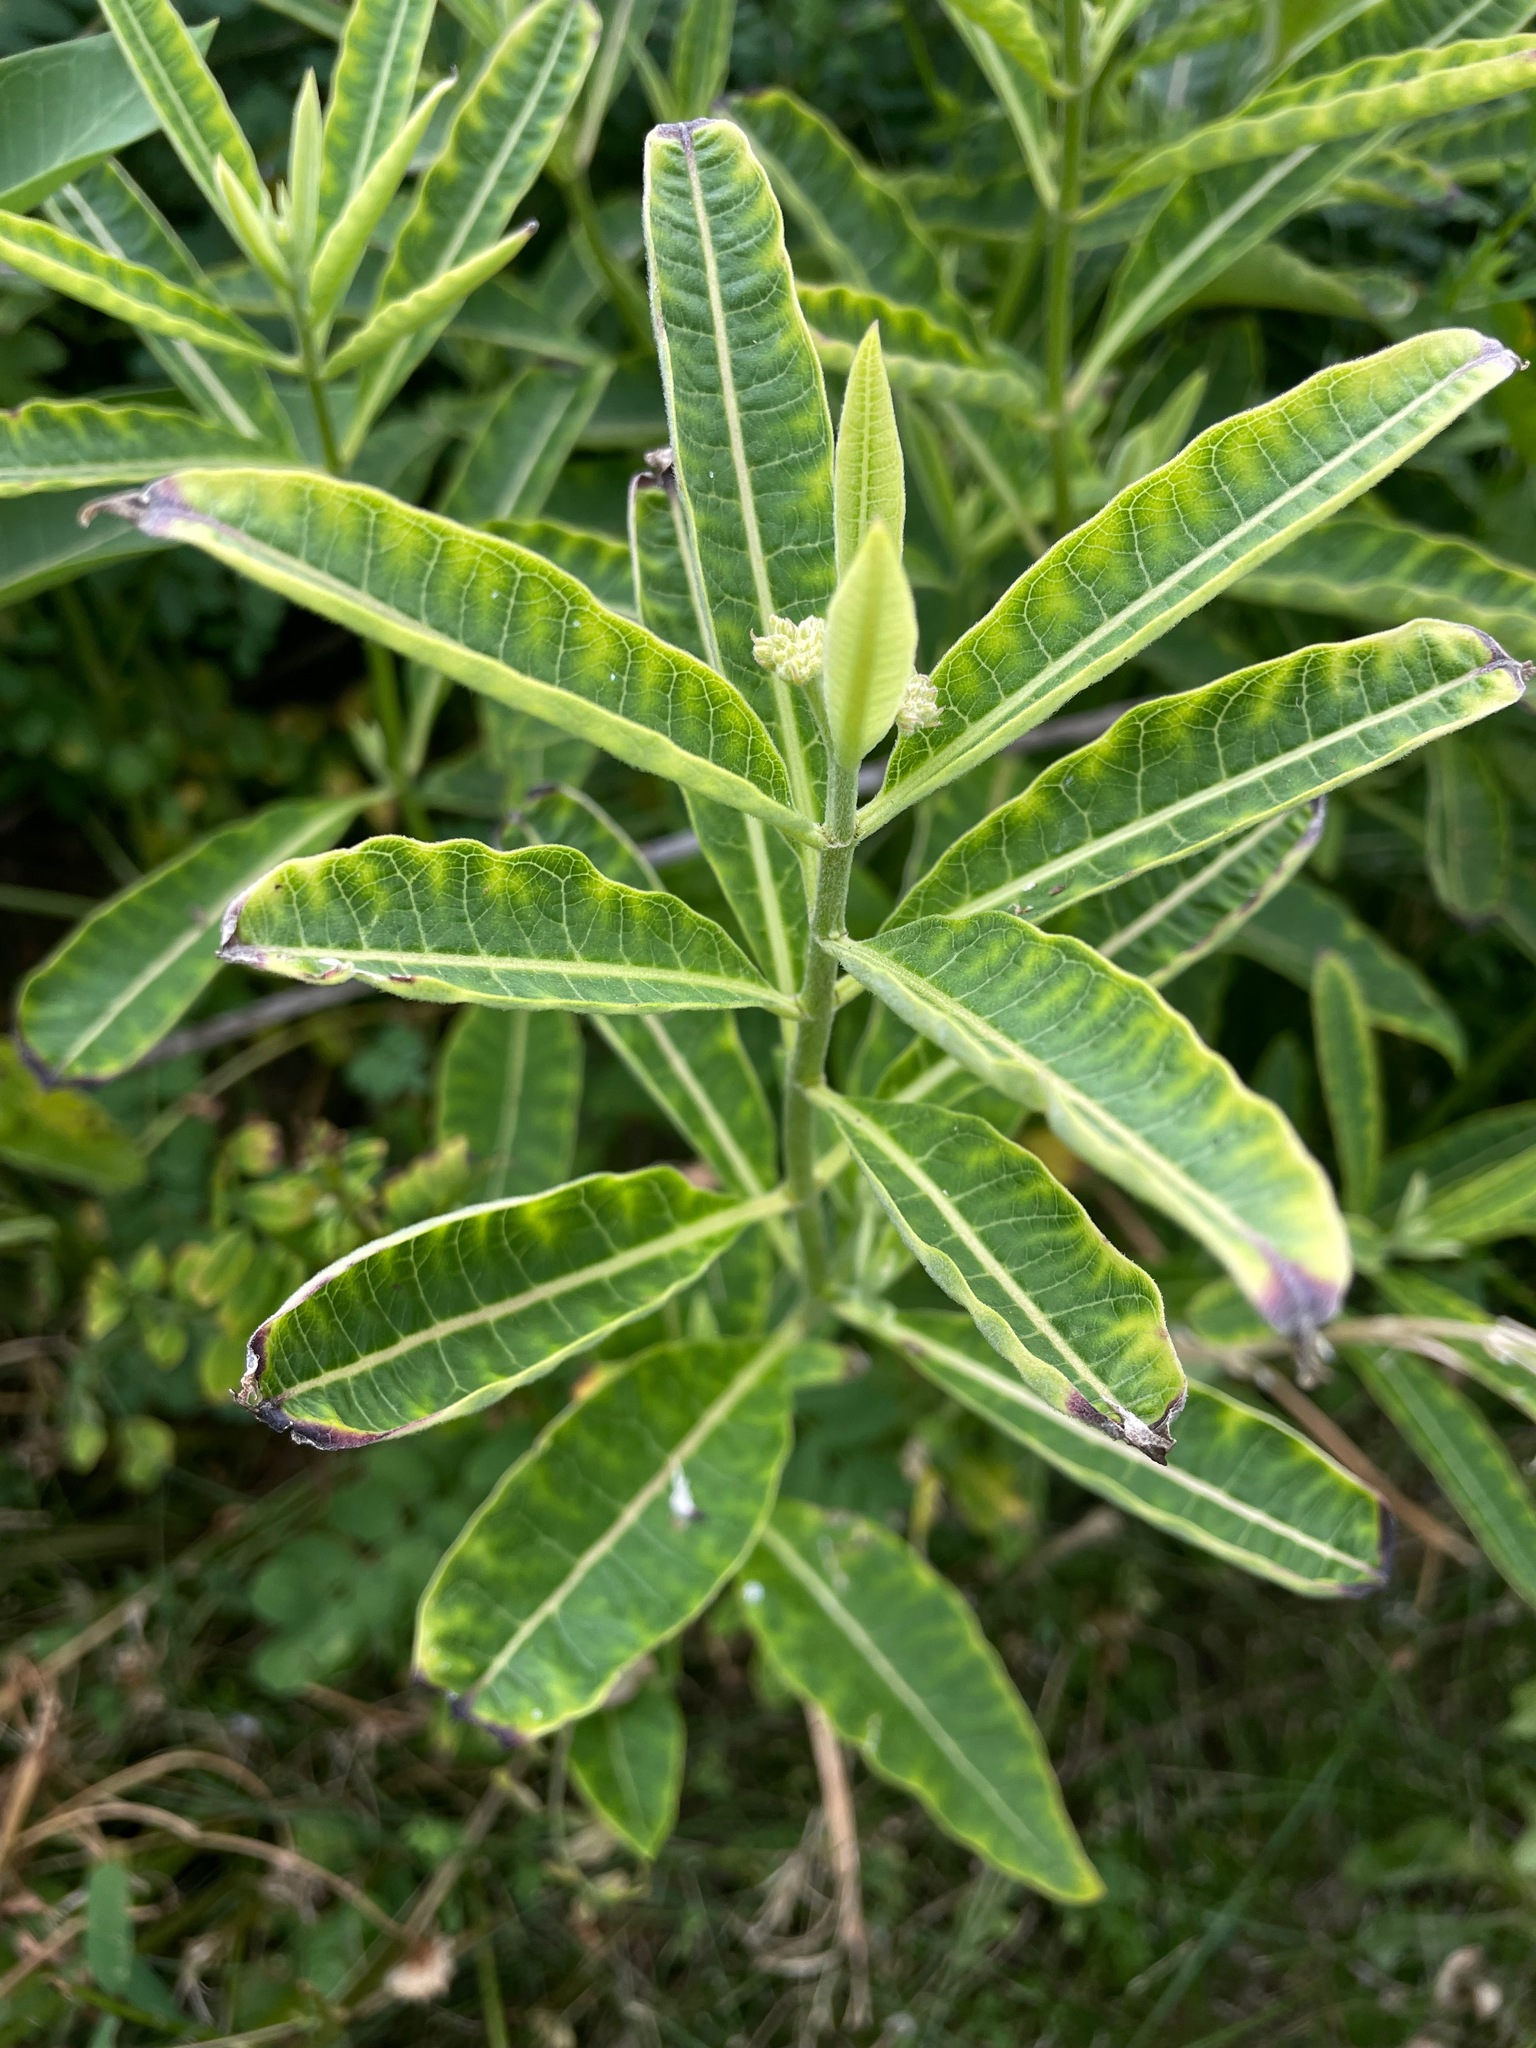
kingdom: Plantae
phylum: Tracheophyta
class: Magnoliopsida
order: Gentianales
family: Apocynaceae
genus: Asclepias
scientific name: Asclepias syriaca
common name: Common milkweed
